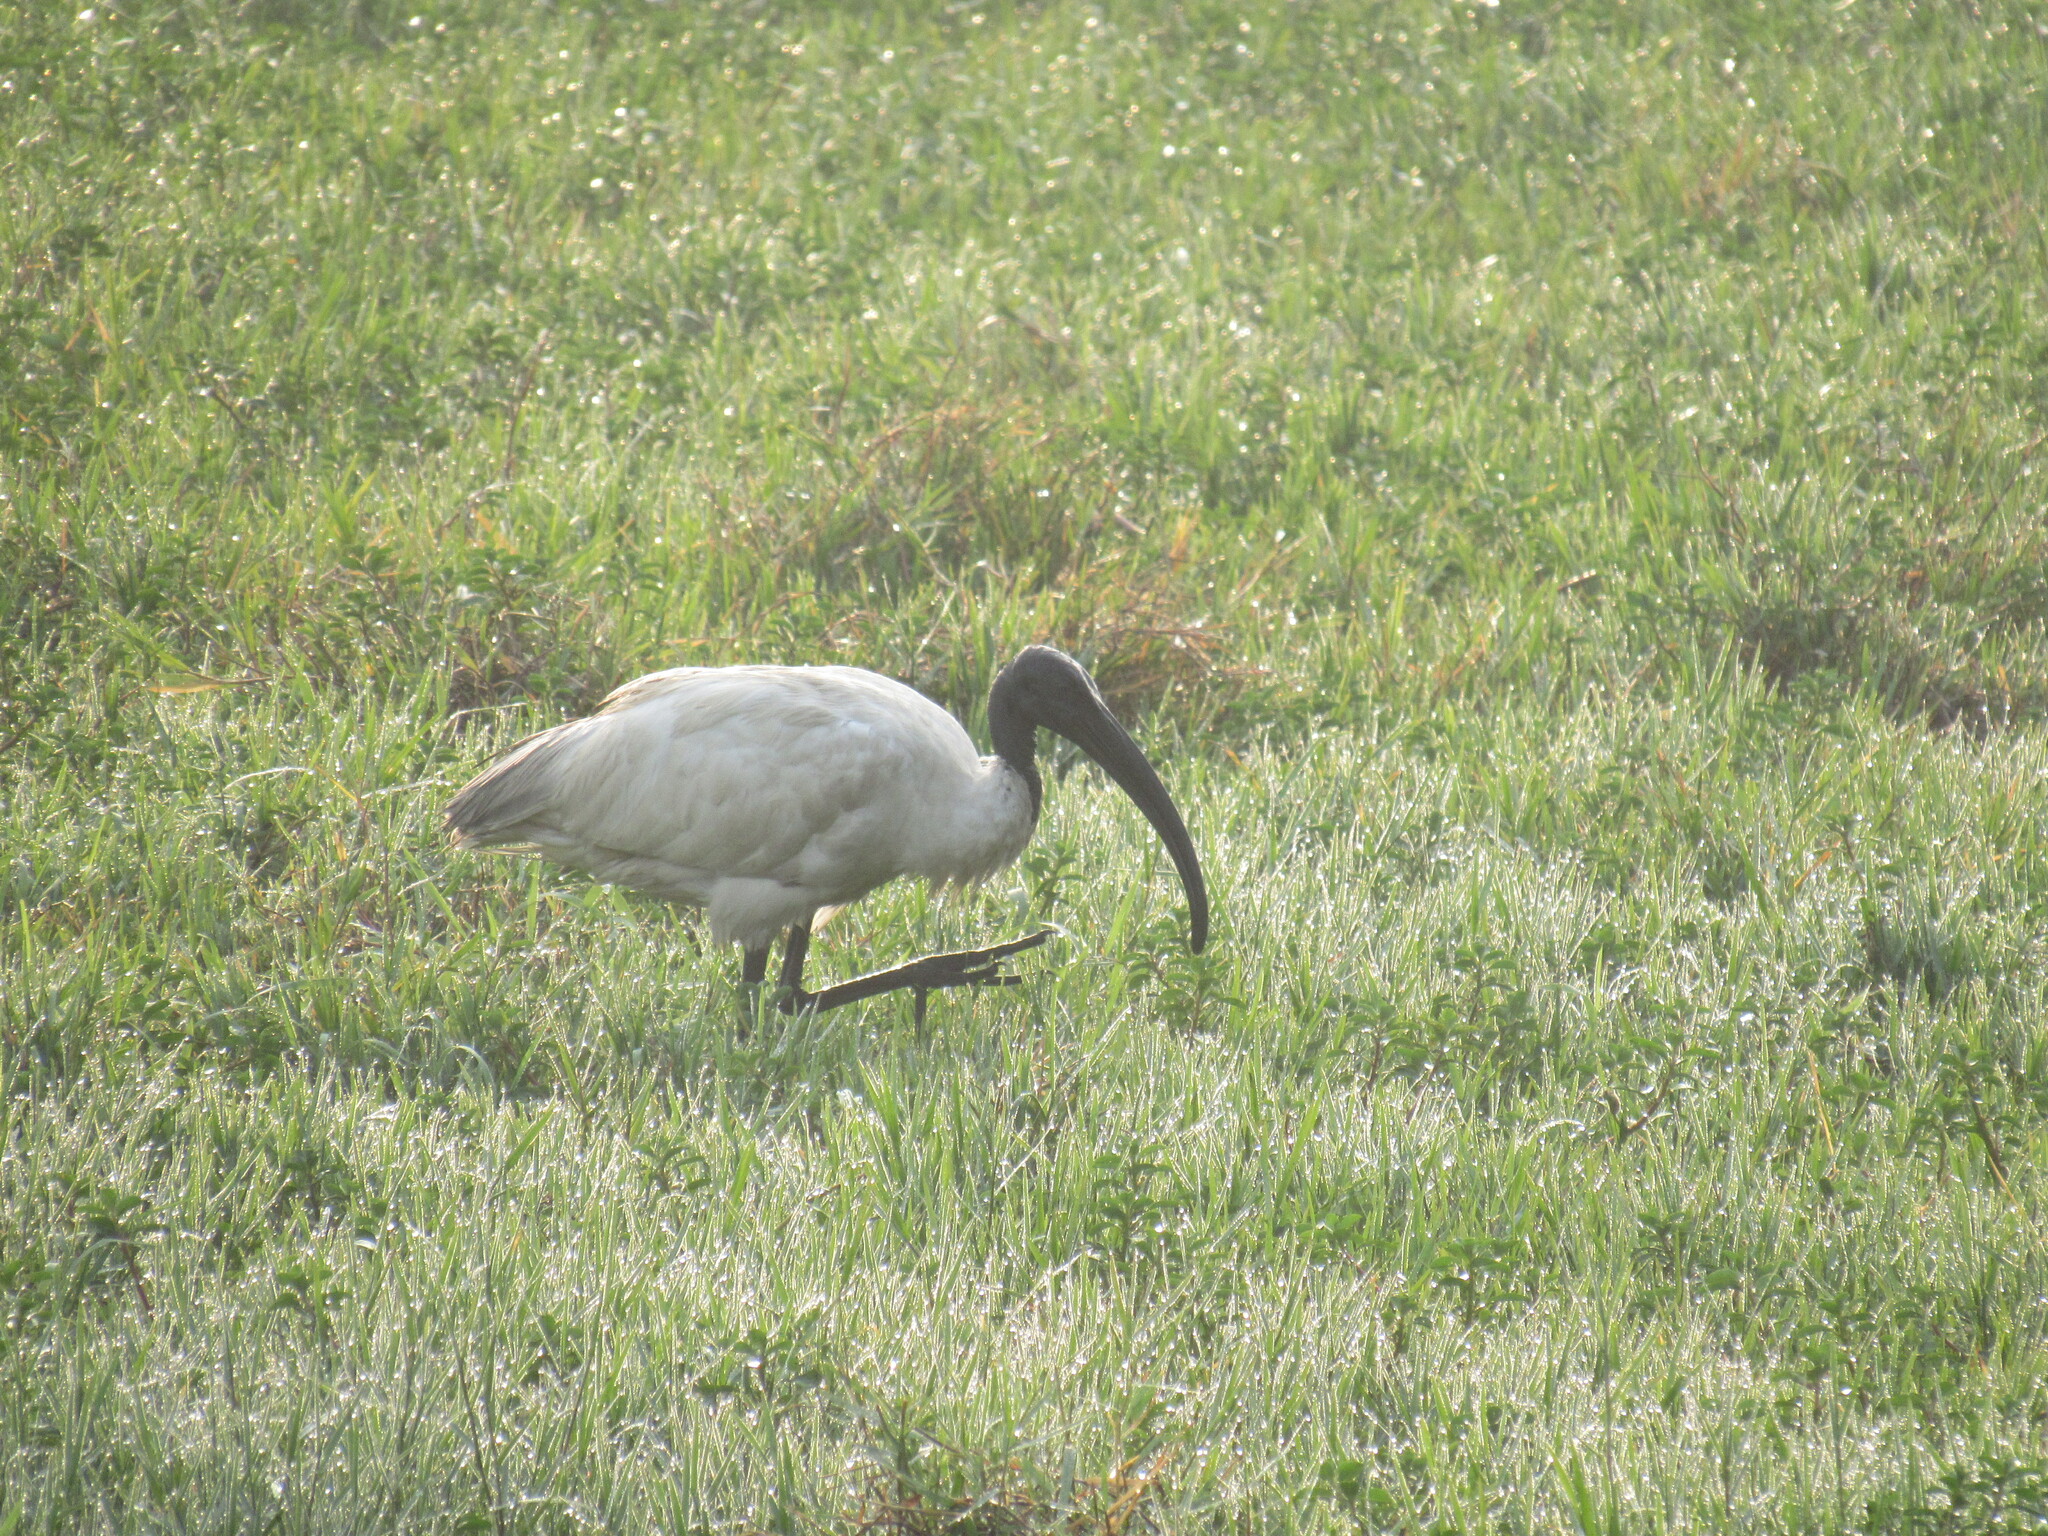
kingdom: Animalia
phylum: Chordata
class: Aves
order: Pelecaniformes
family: Threskiornithidae
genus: Threskiornis
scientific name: Threskiornis melanocephalus
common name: Black-headed ibis
